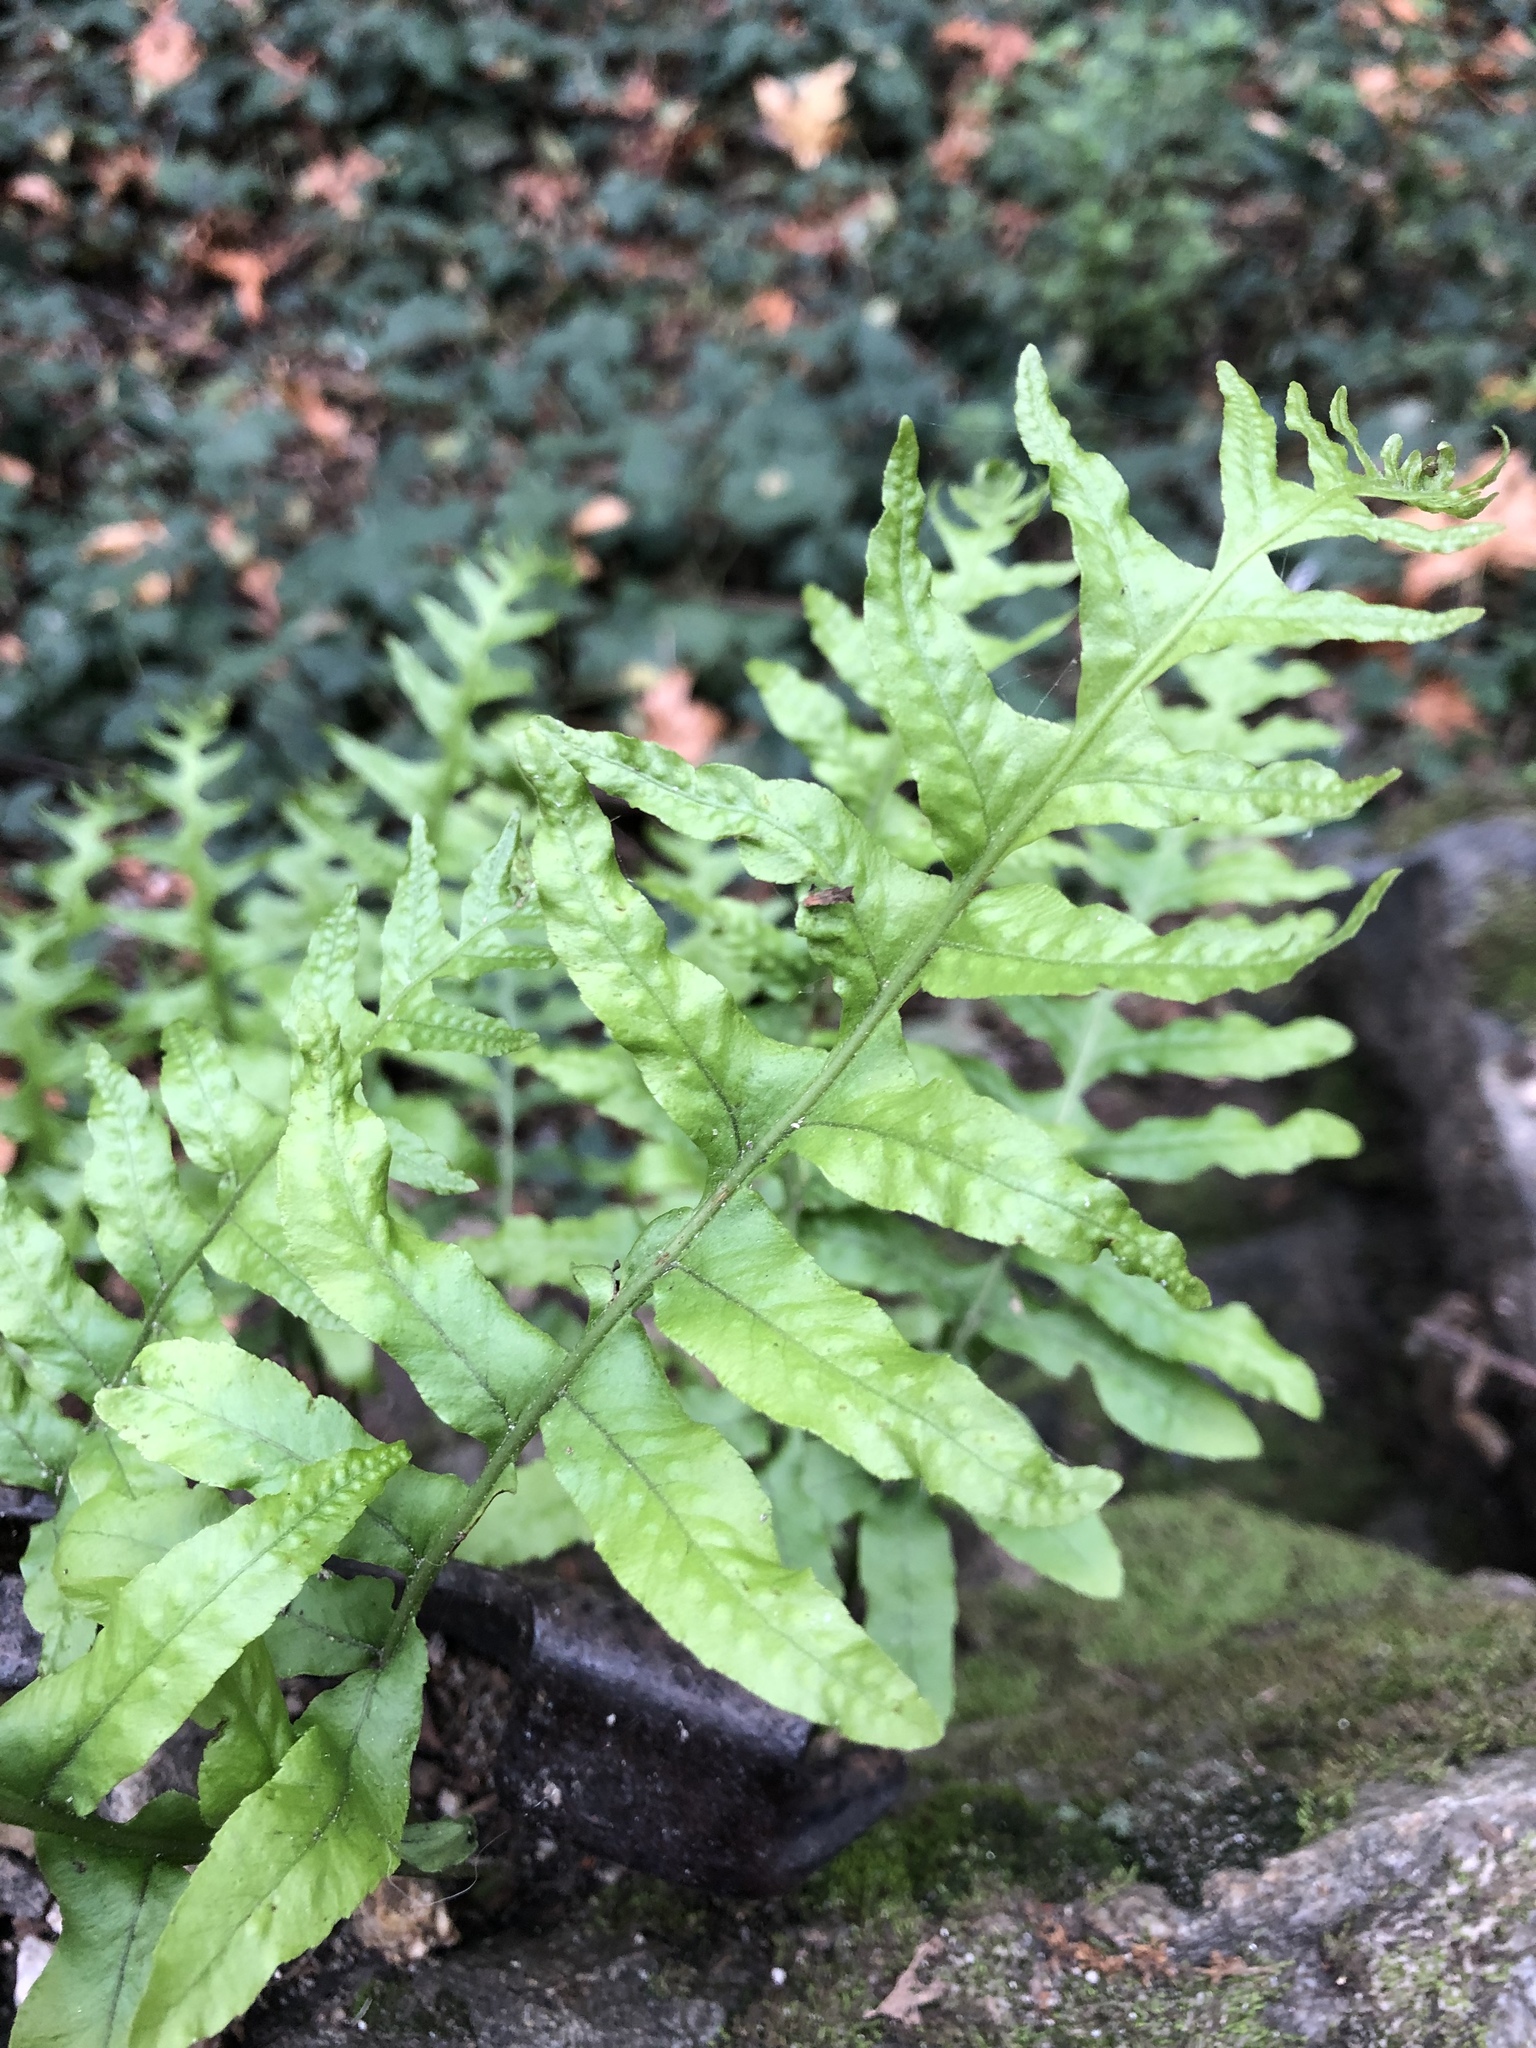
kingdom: Plantae
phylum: Tracheophyta
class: Polypodiopsida
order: Polypodiales
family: Polypodiaceae
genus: Polypodium
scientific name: Polypodium californicum
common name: California polypody
